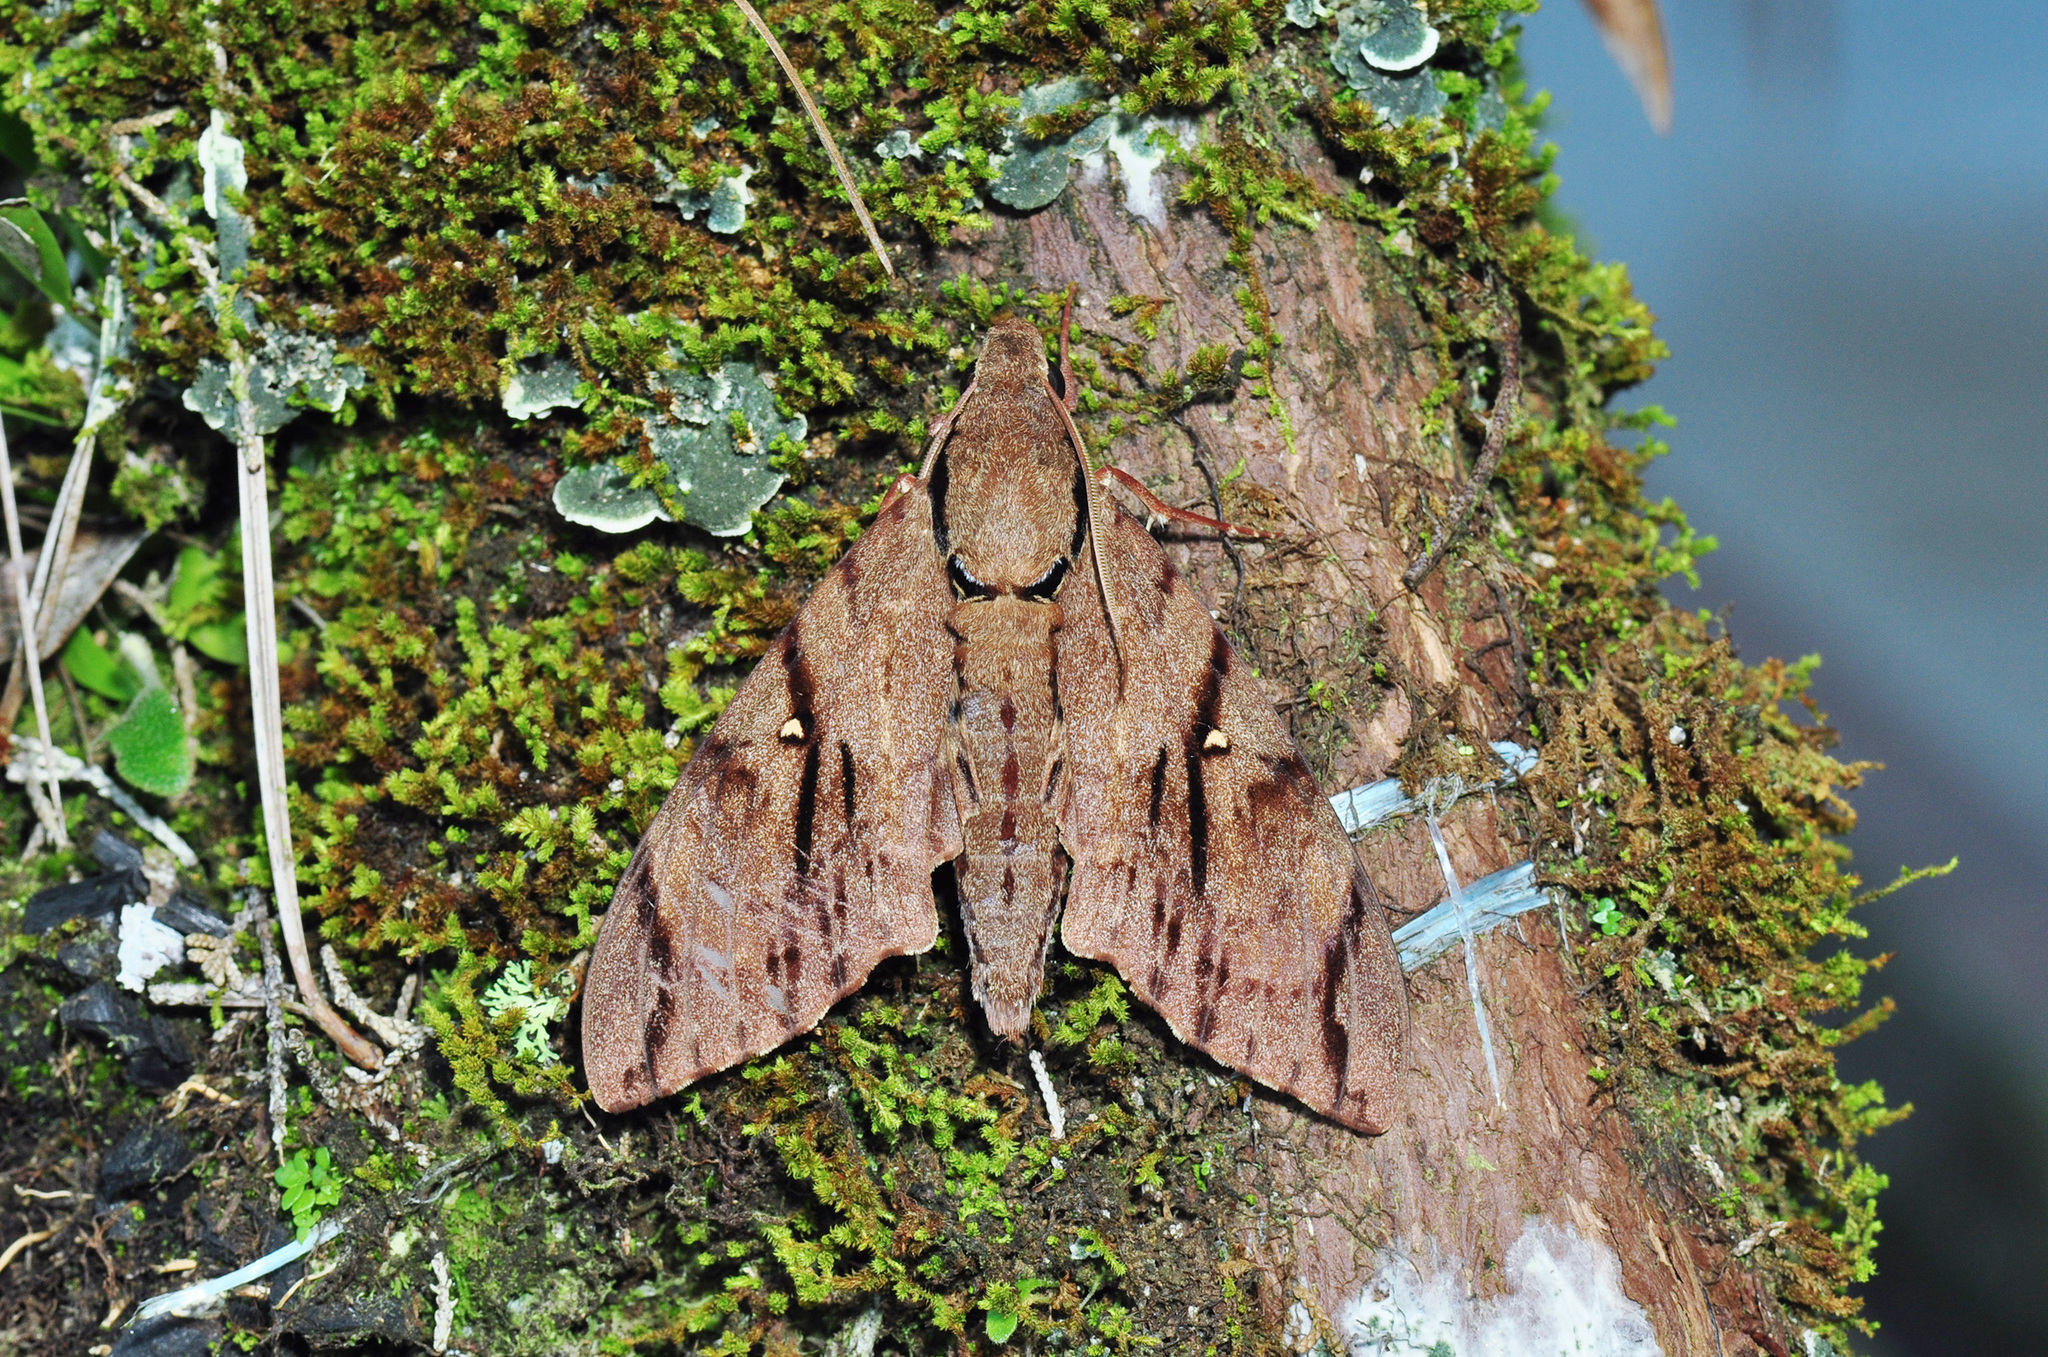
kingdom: Animalia
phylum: Arthropoda
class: Insecta
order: Lepidoptera
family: Sphingidae
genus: Cerberonoton
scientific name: Cerberonoton rubescens
